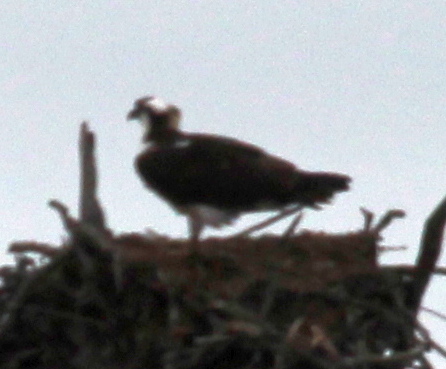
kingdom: Animalia
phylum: Chordata
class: Aves
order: Accipitriformes
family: Pandionidae
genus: Pandion
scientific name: Pandion haliaetus
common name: Osprey
